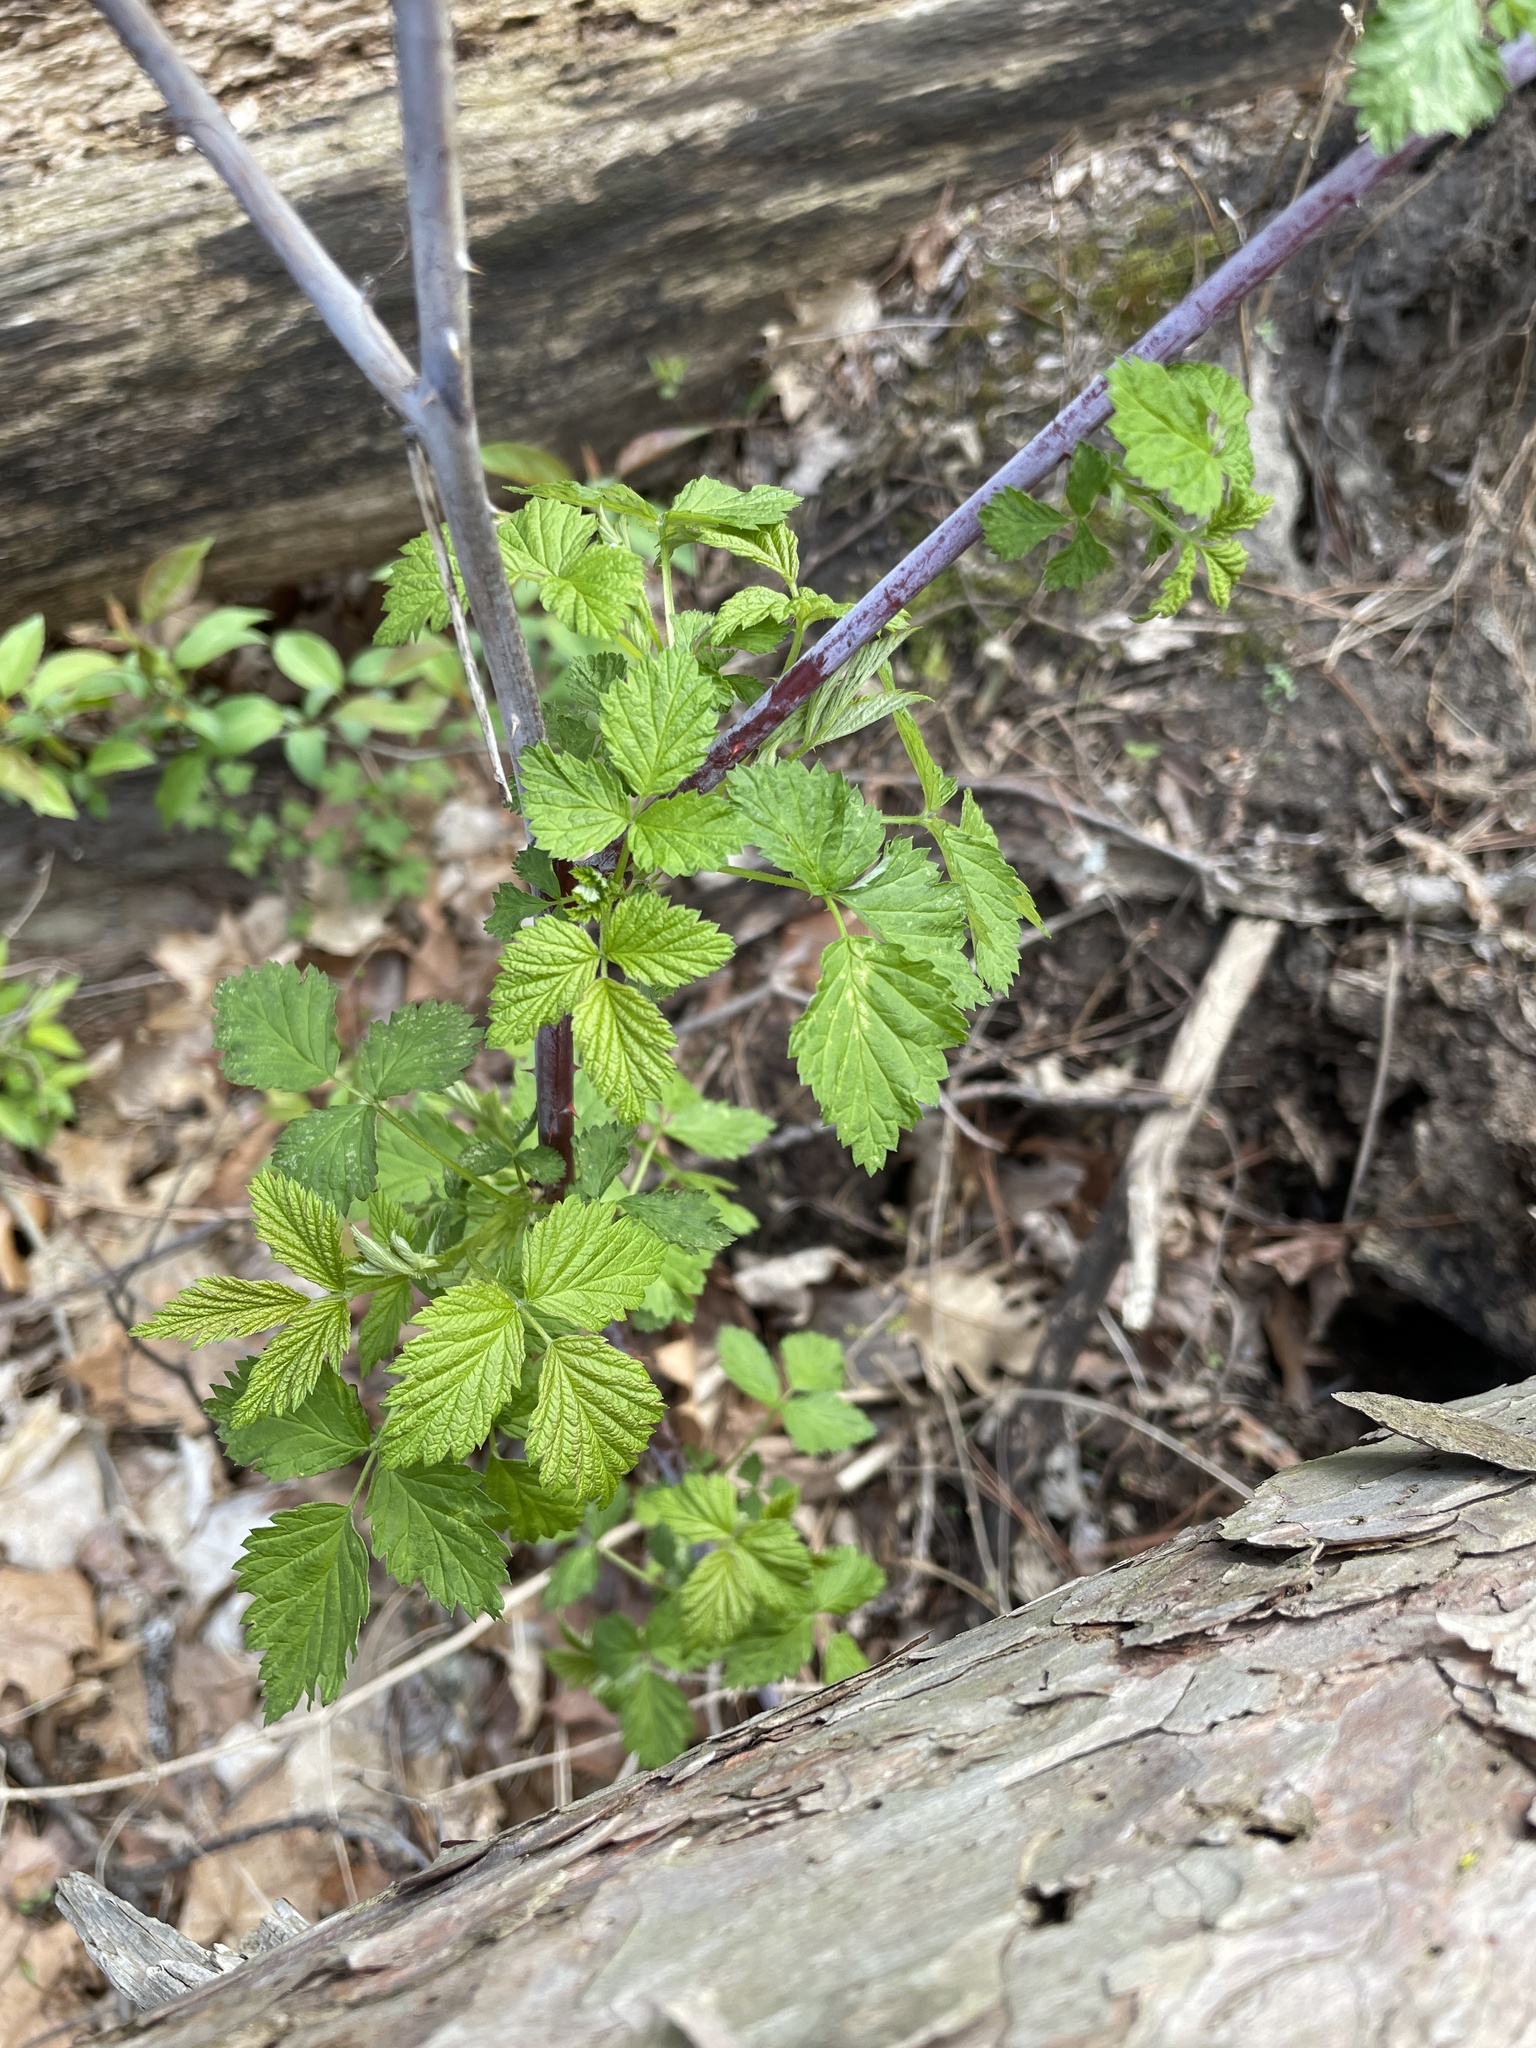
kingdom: Plantae
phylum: Tracheophyta
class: Magnoliopsida
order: Rosales
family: Rosaceae
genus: Rubus
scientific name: Rubus occidentalis
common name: Black raspberry
